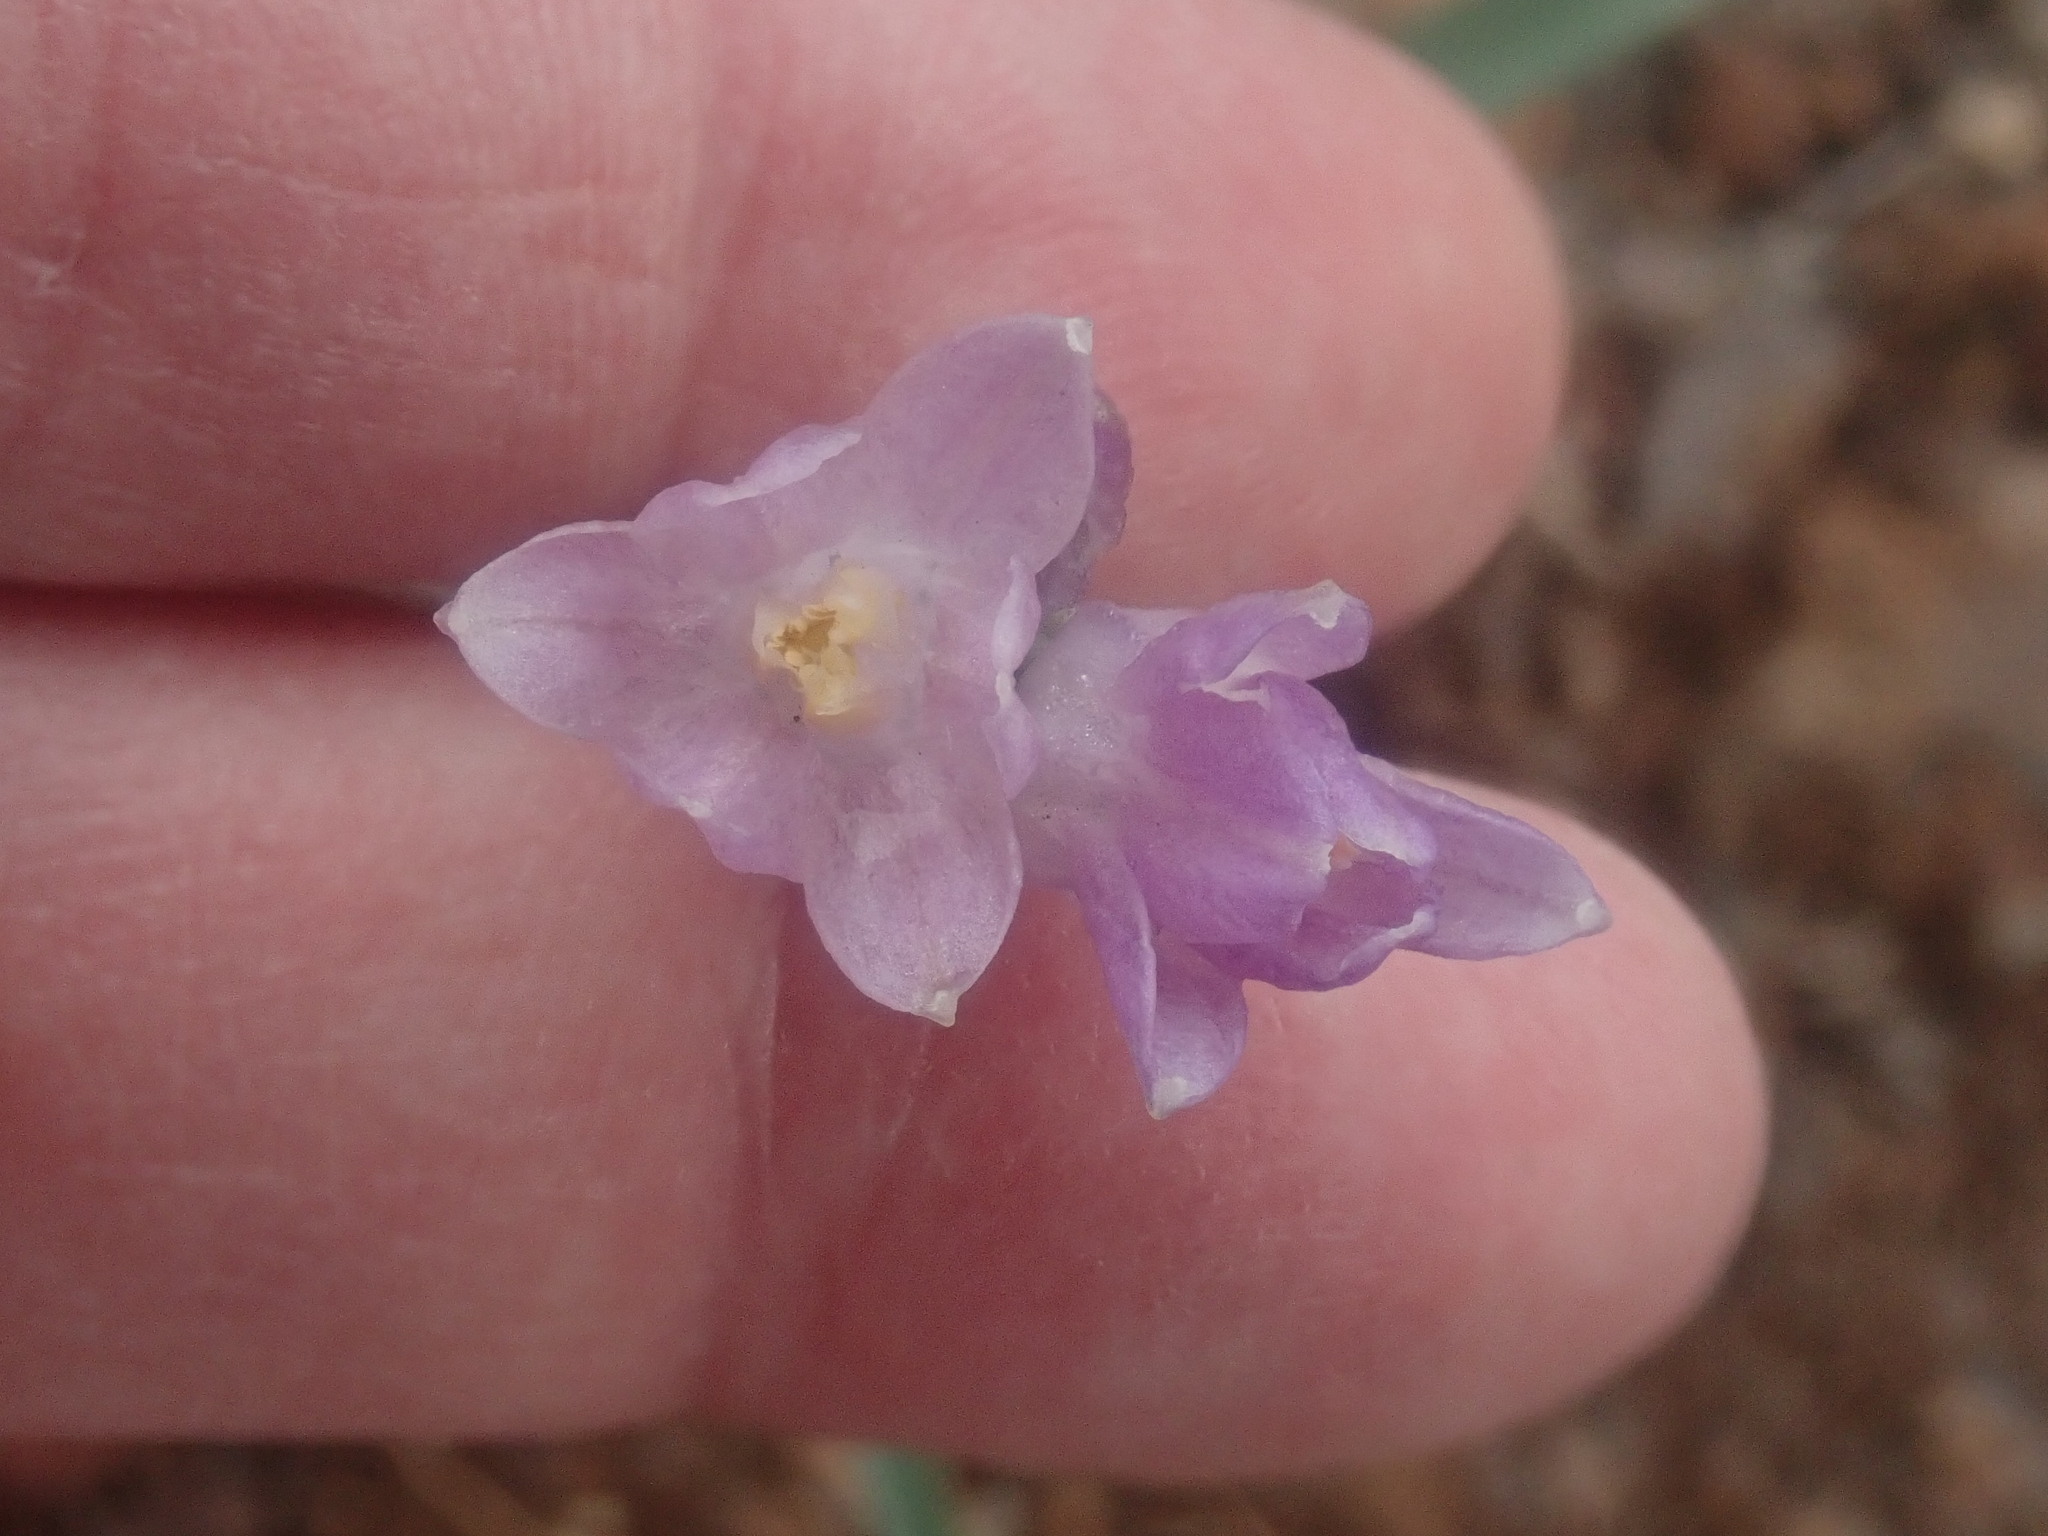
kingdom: Plantae
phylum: Tracheophyta
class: Liliopsida
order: Asparagales
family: Asparagaceae
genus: Dipterostemon
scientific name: Dipterostemon capitatus
